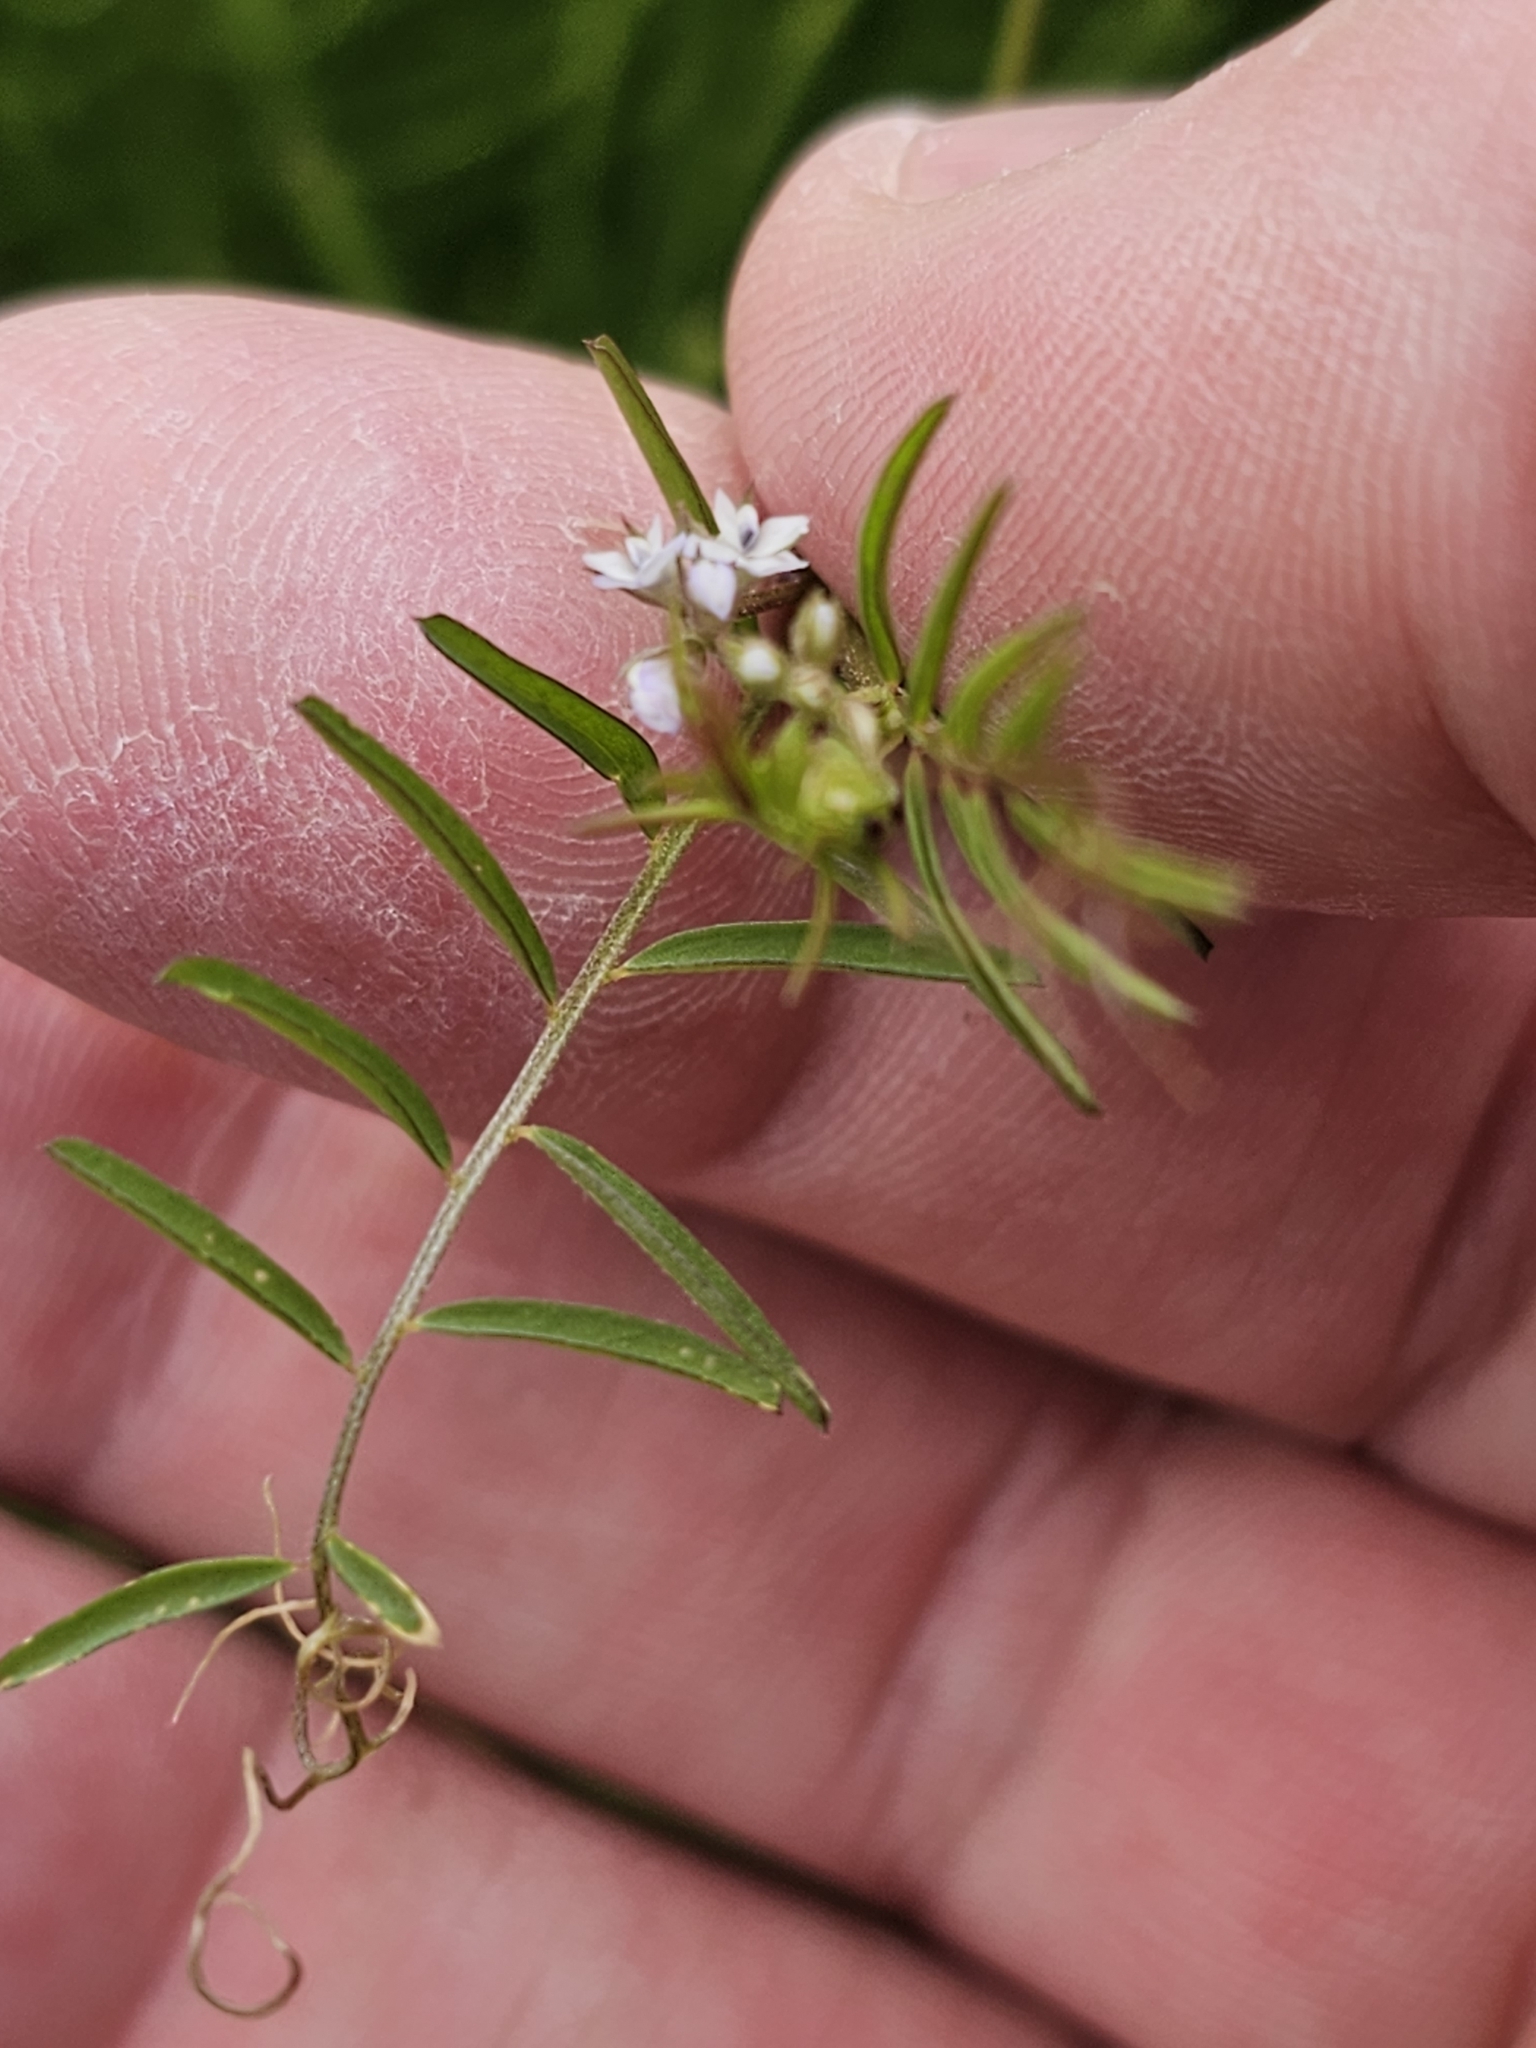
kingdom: Plantae
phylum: Tracheophyta
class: Magnoliopsida
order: Fabales
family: Fabaceae
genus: Vicia
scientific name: Vicia hirsuta
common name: Tiny vetch
